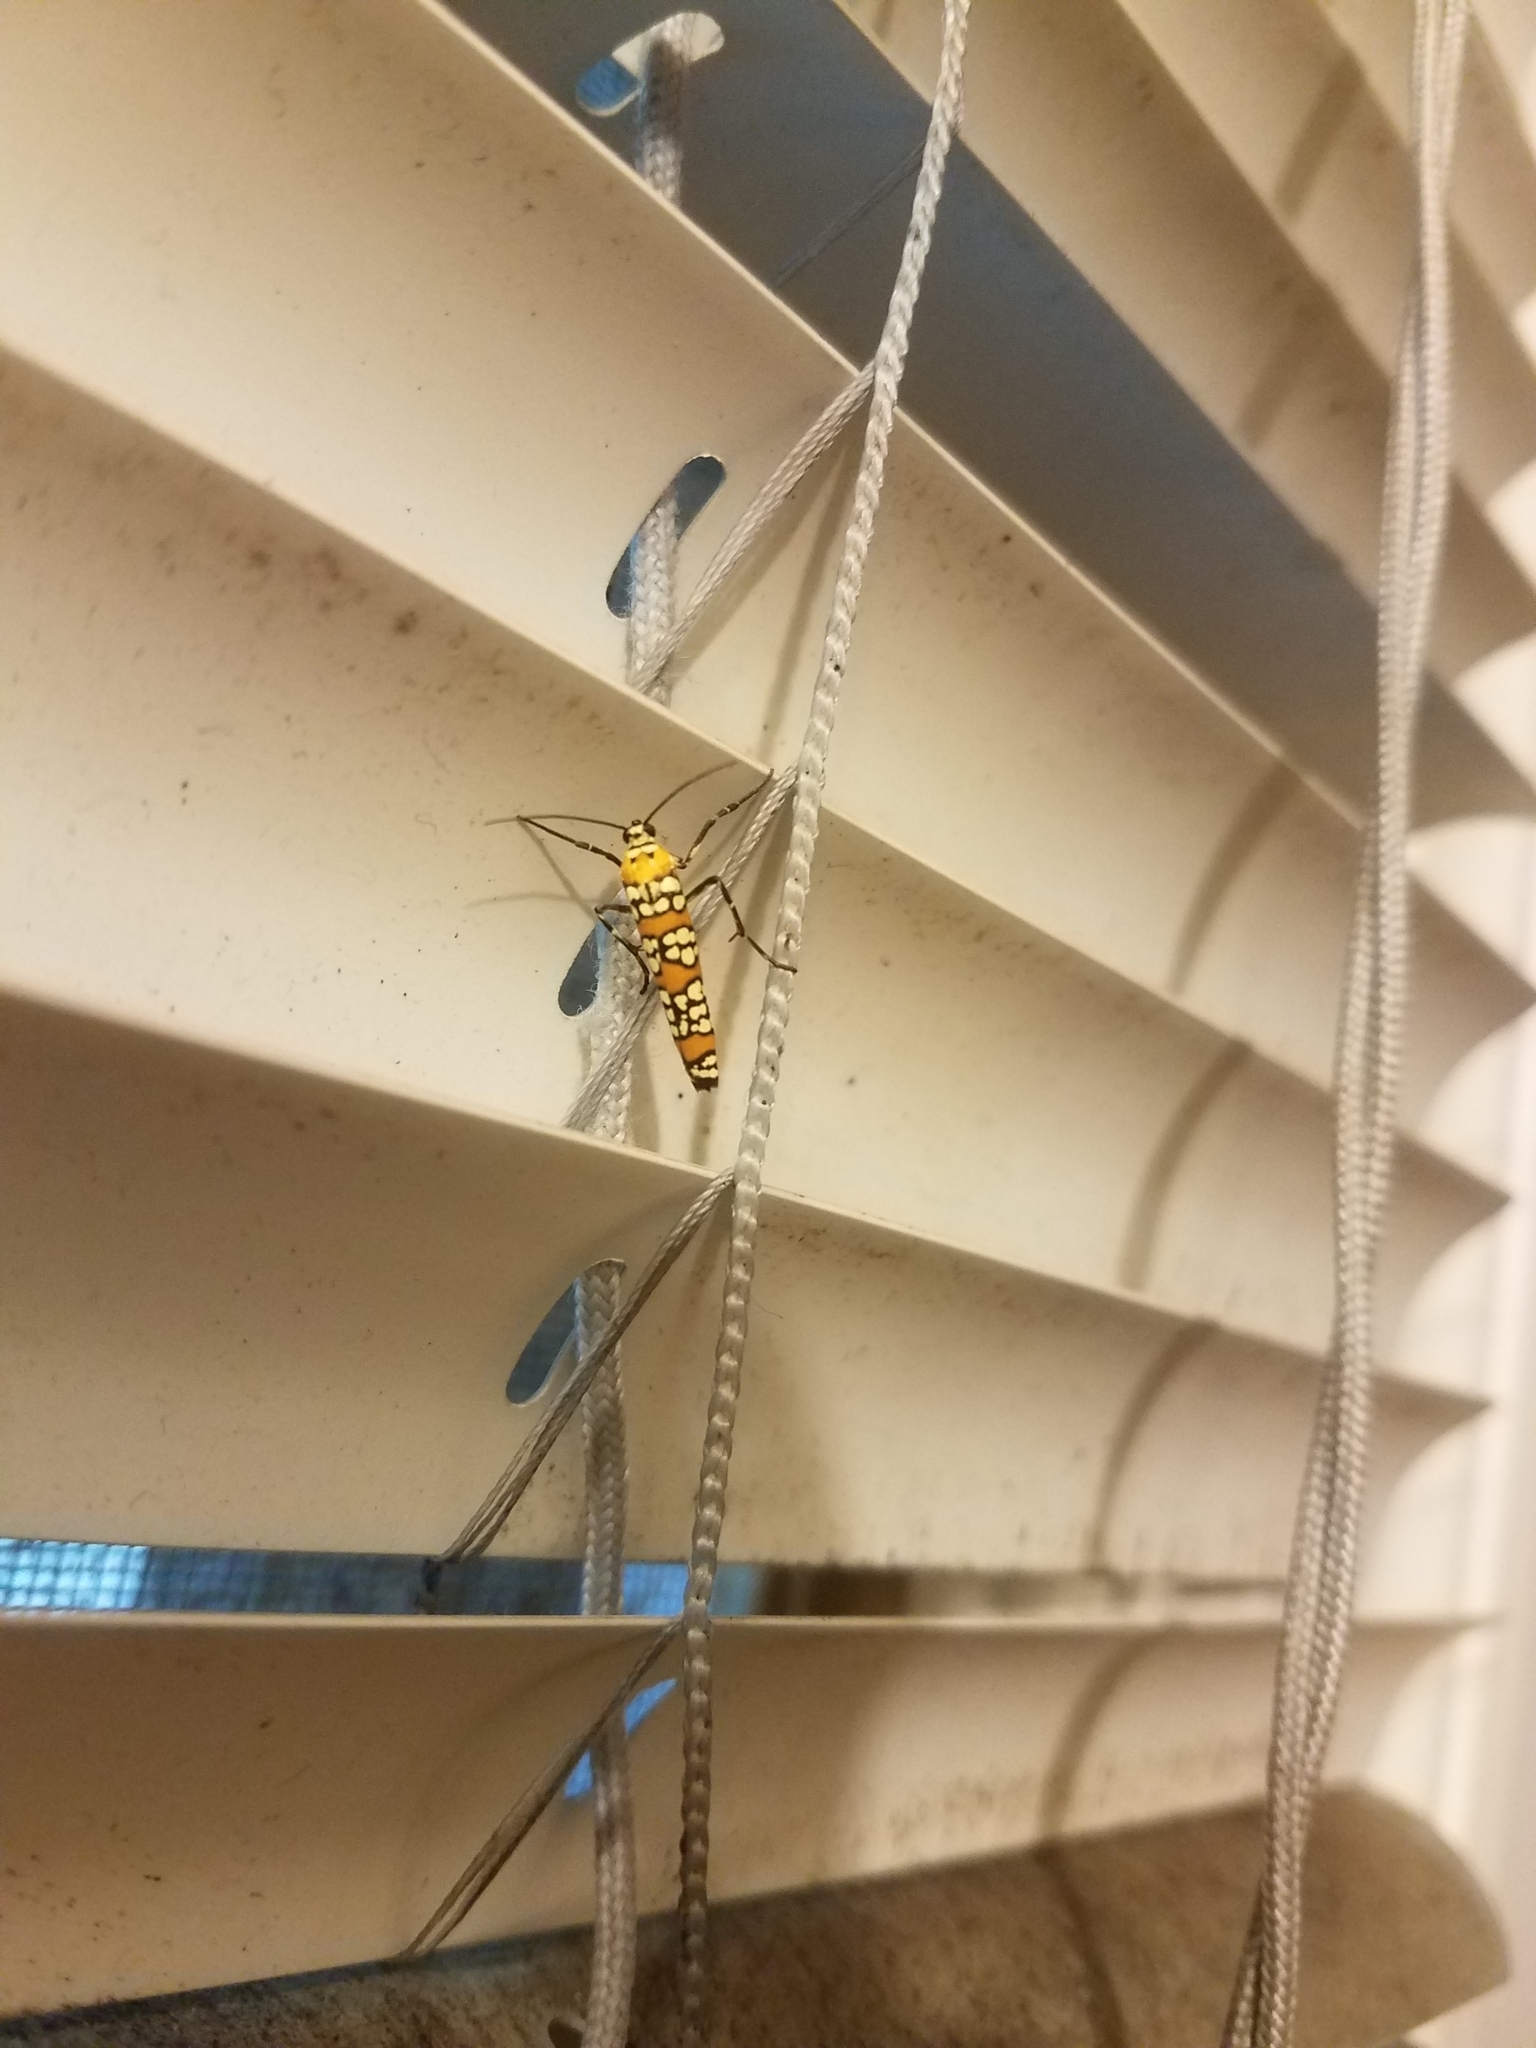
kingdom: Animalia
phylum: Arthropoda
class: Insecta
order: Lepidoptera
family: Attevidae
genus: Atteva
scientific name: Atteva punctella
